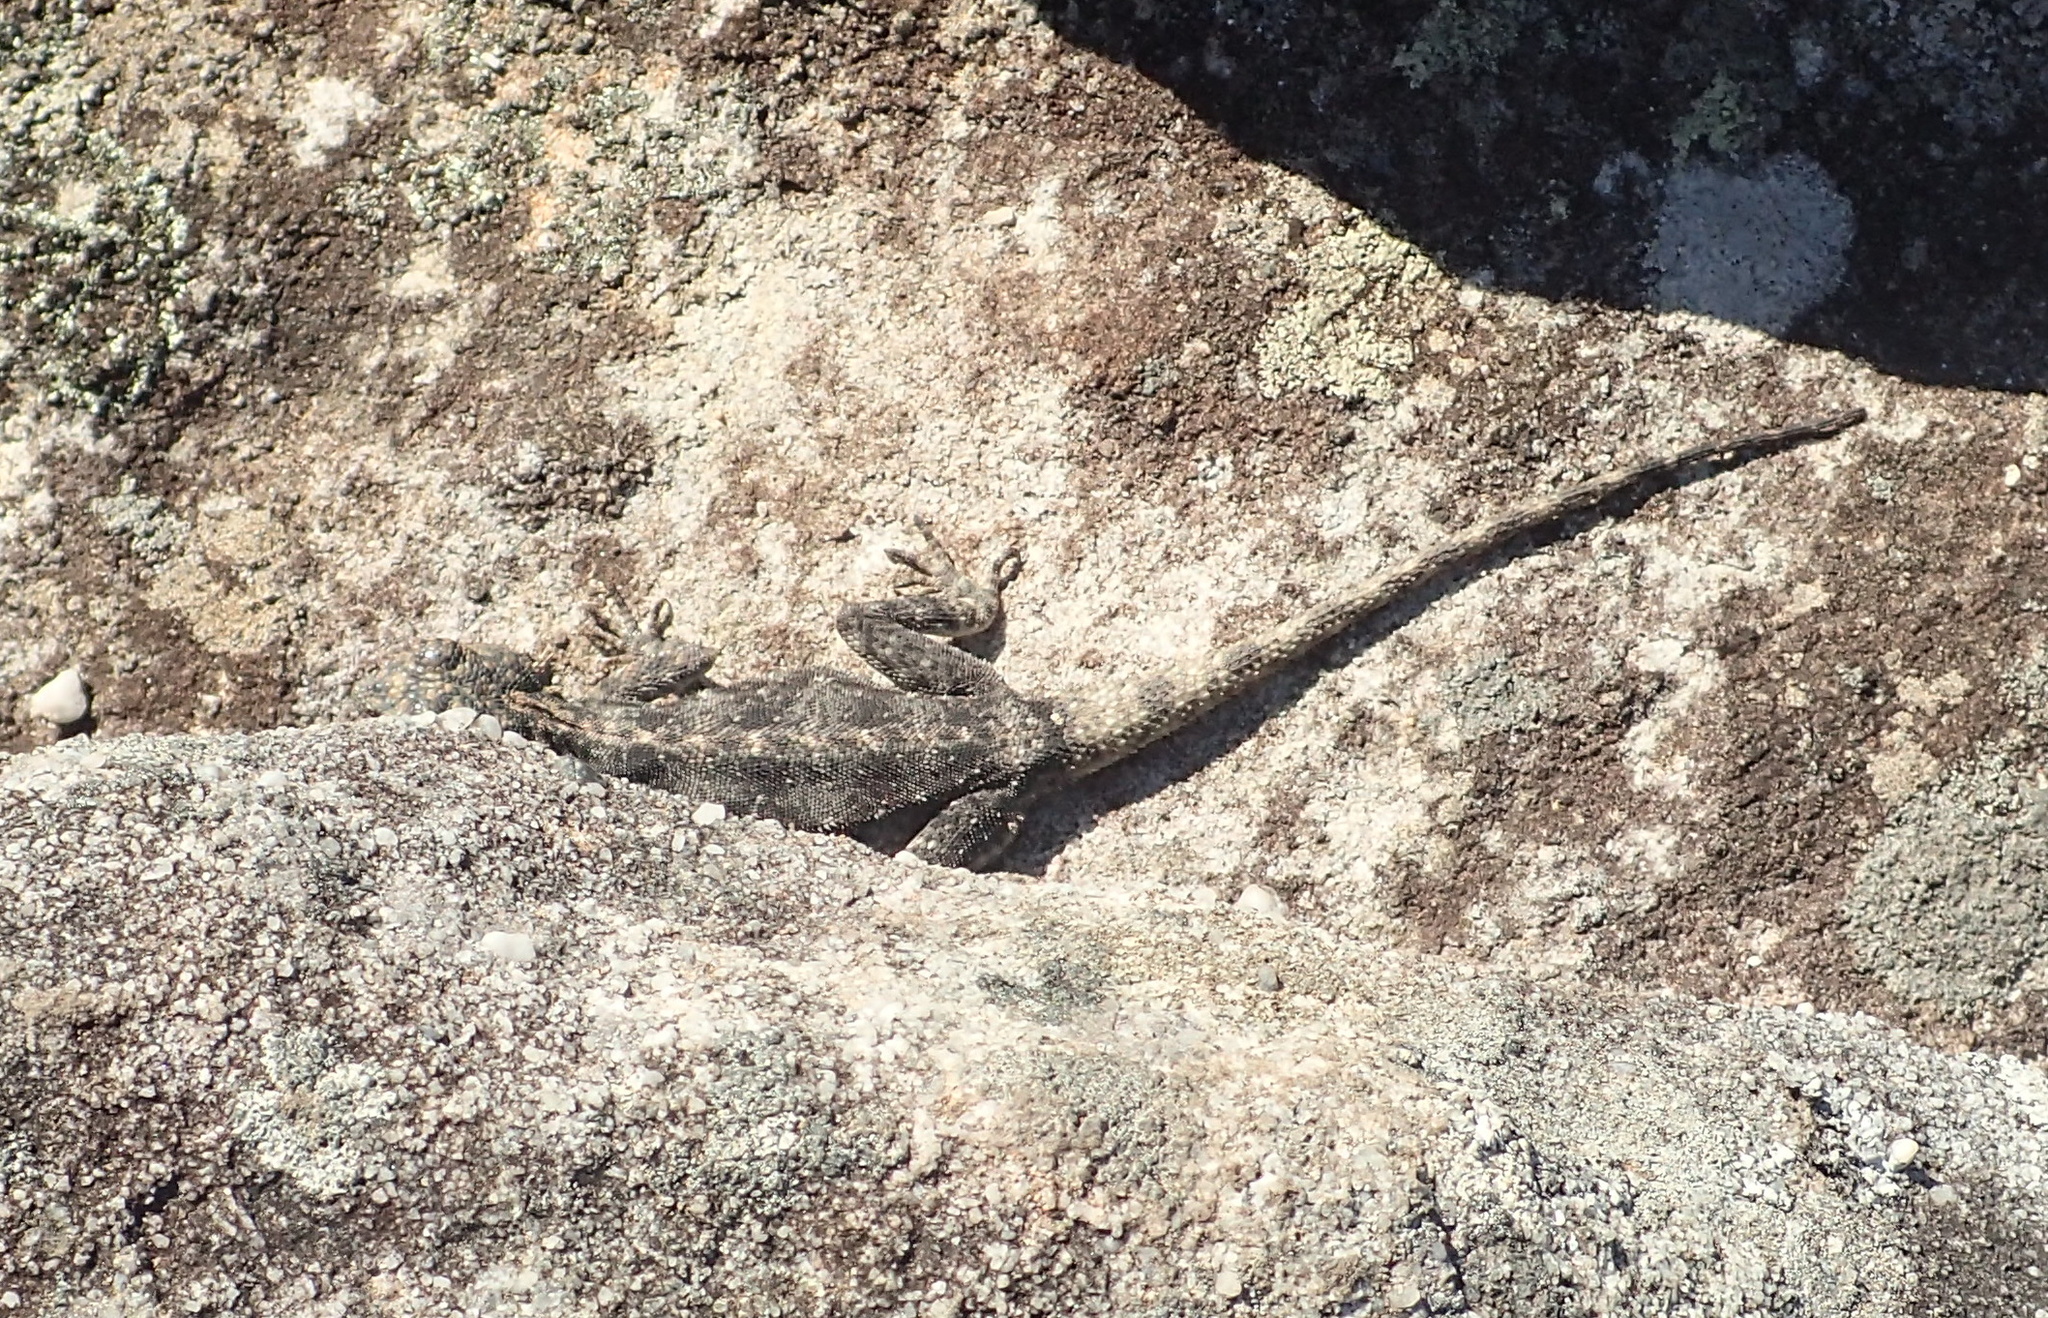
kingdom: Animalia
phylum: Chordata
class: Squamata
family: Agamidae
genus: Agama
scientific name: Agama atra
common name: Southern african rock agama
